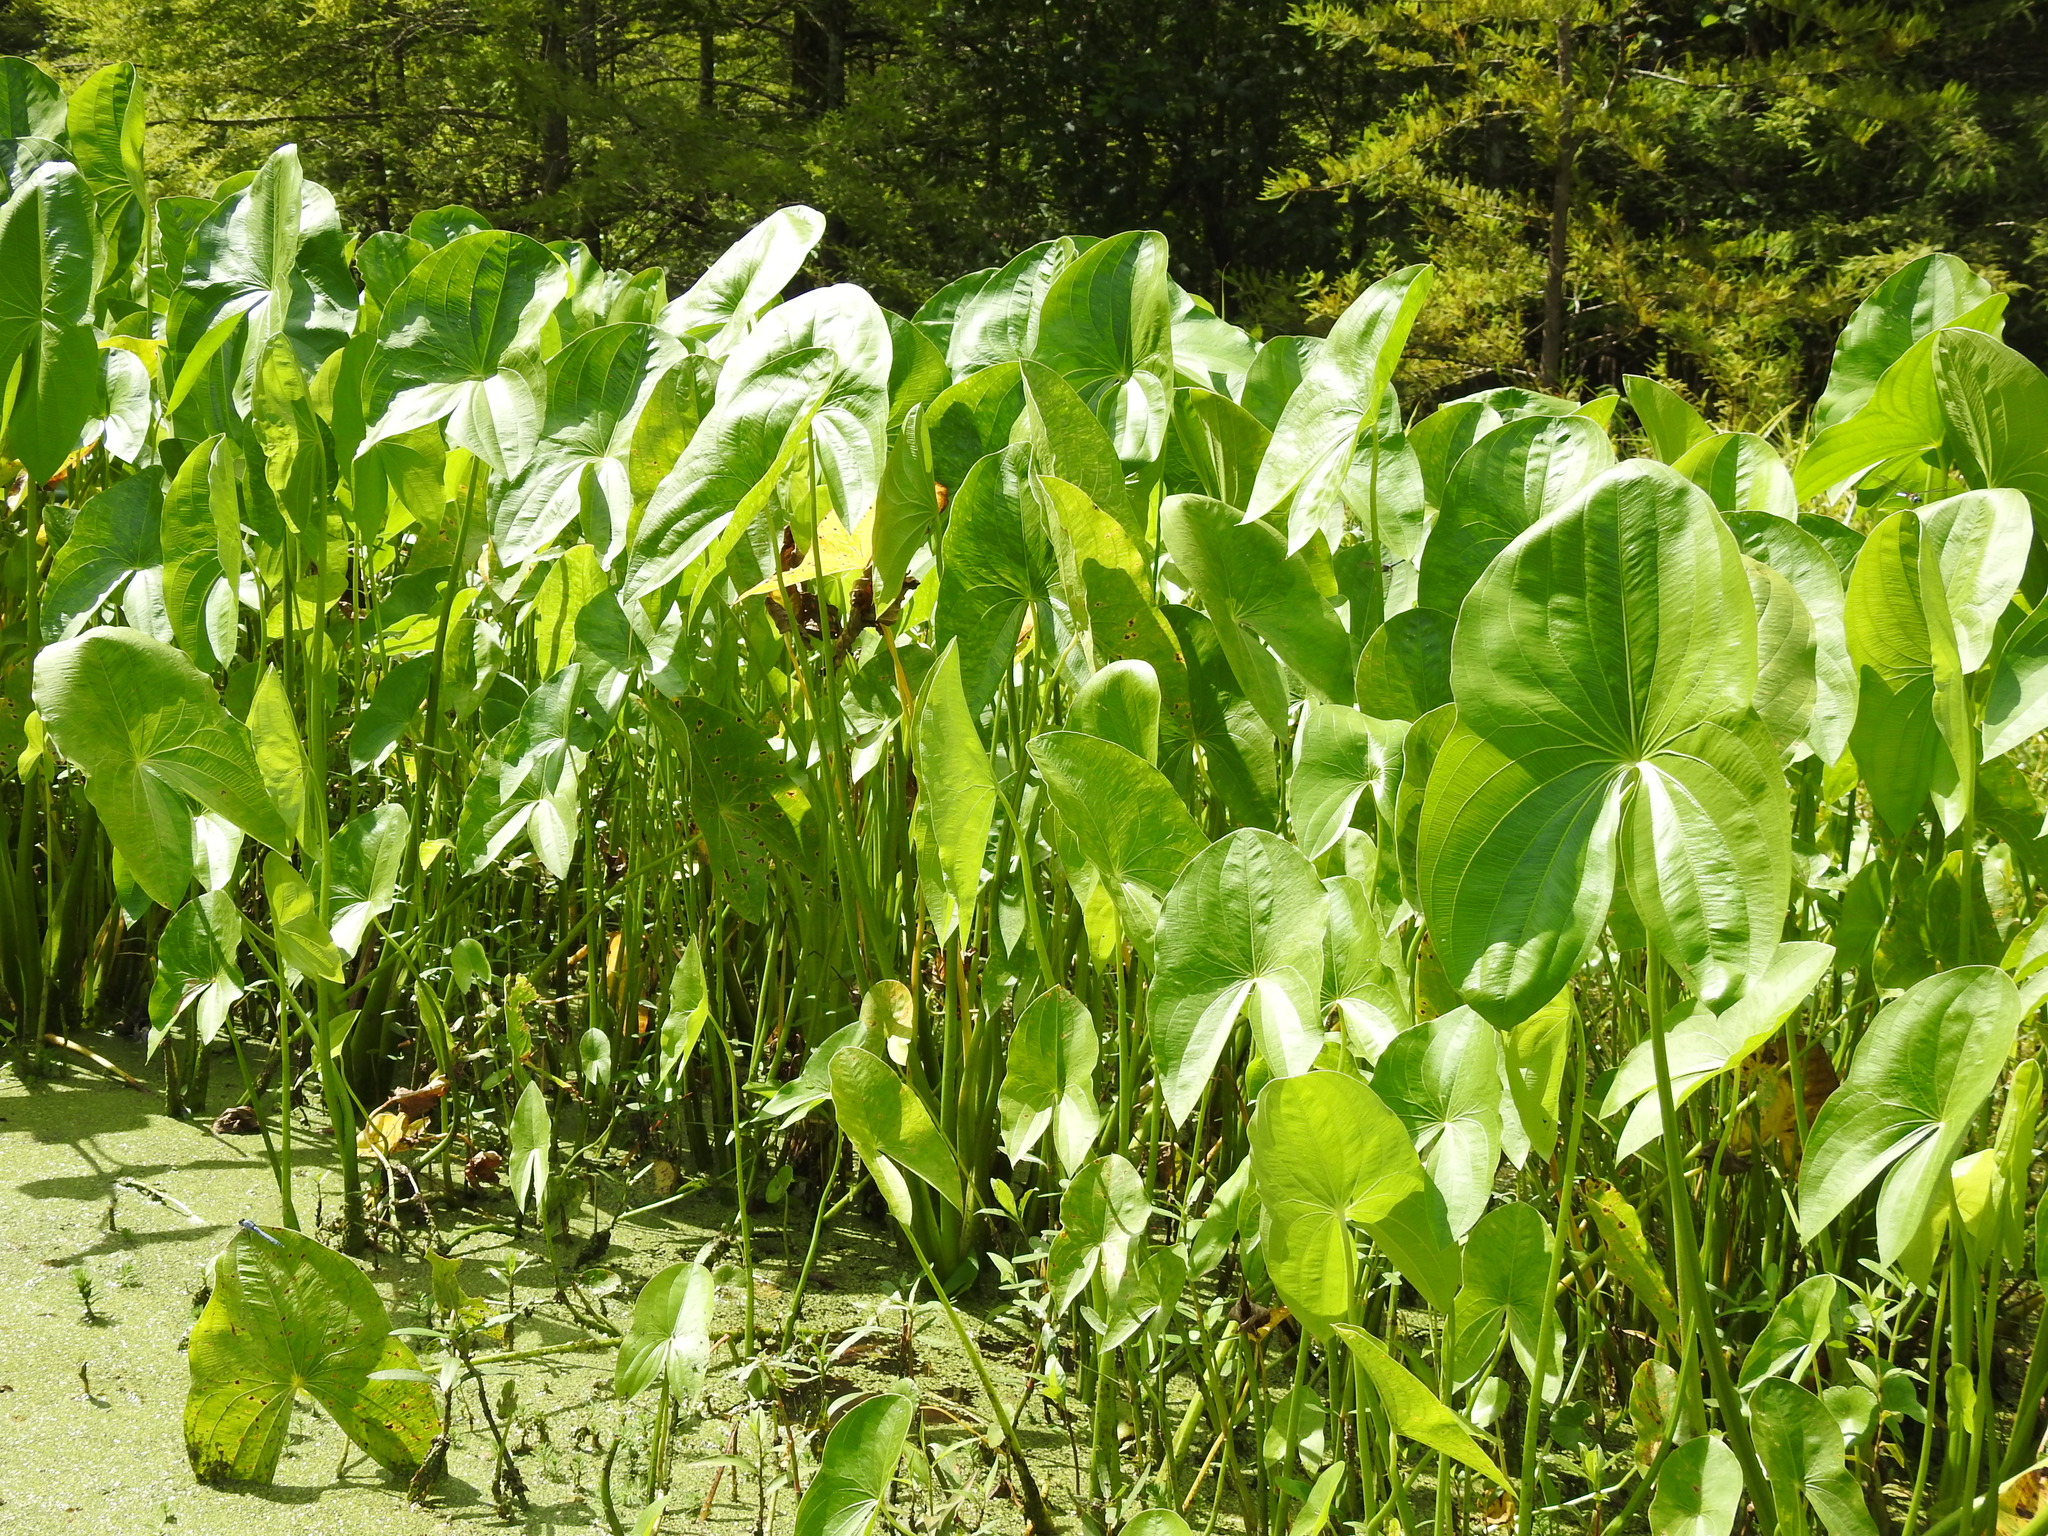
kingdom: Plantae
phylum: Tracheophyta
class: Liliopsida
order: Alismatales
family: Alismataceae
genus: Sagittaria
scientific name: Sagittaria latifolia
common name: Duck-potato
